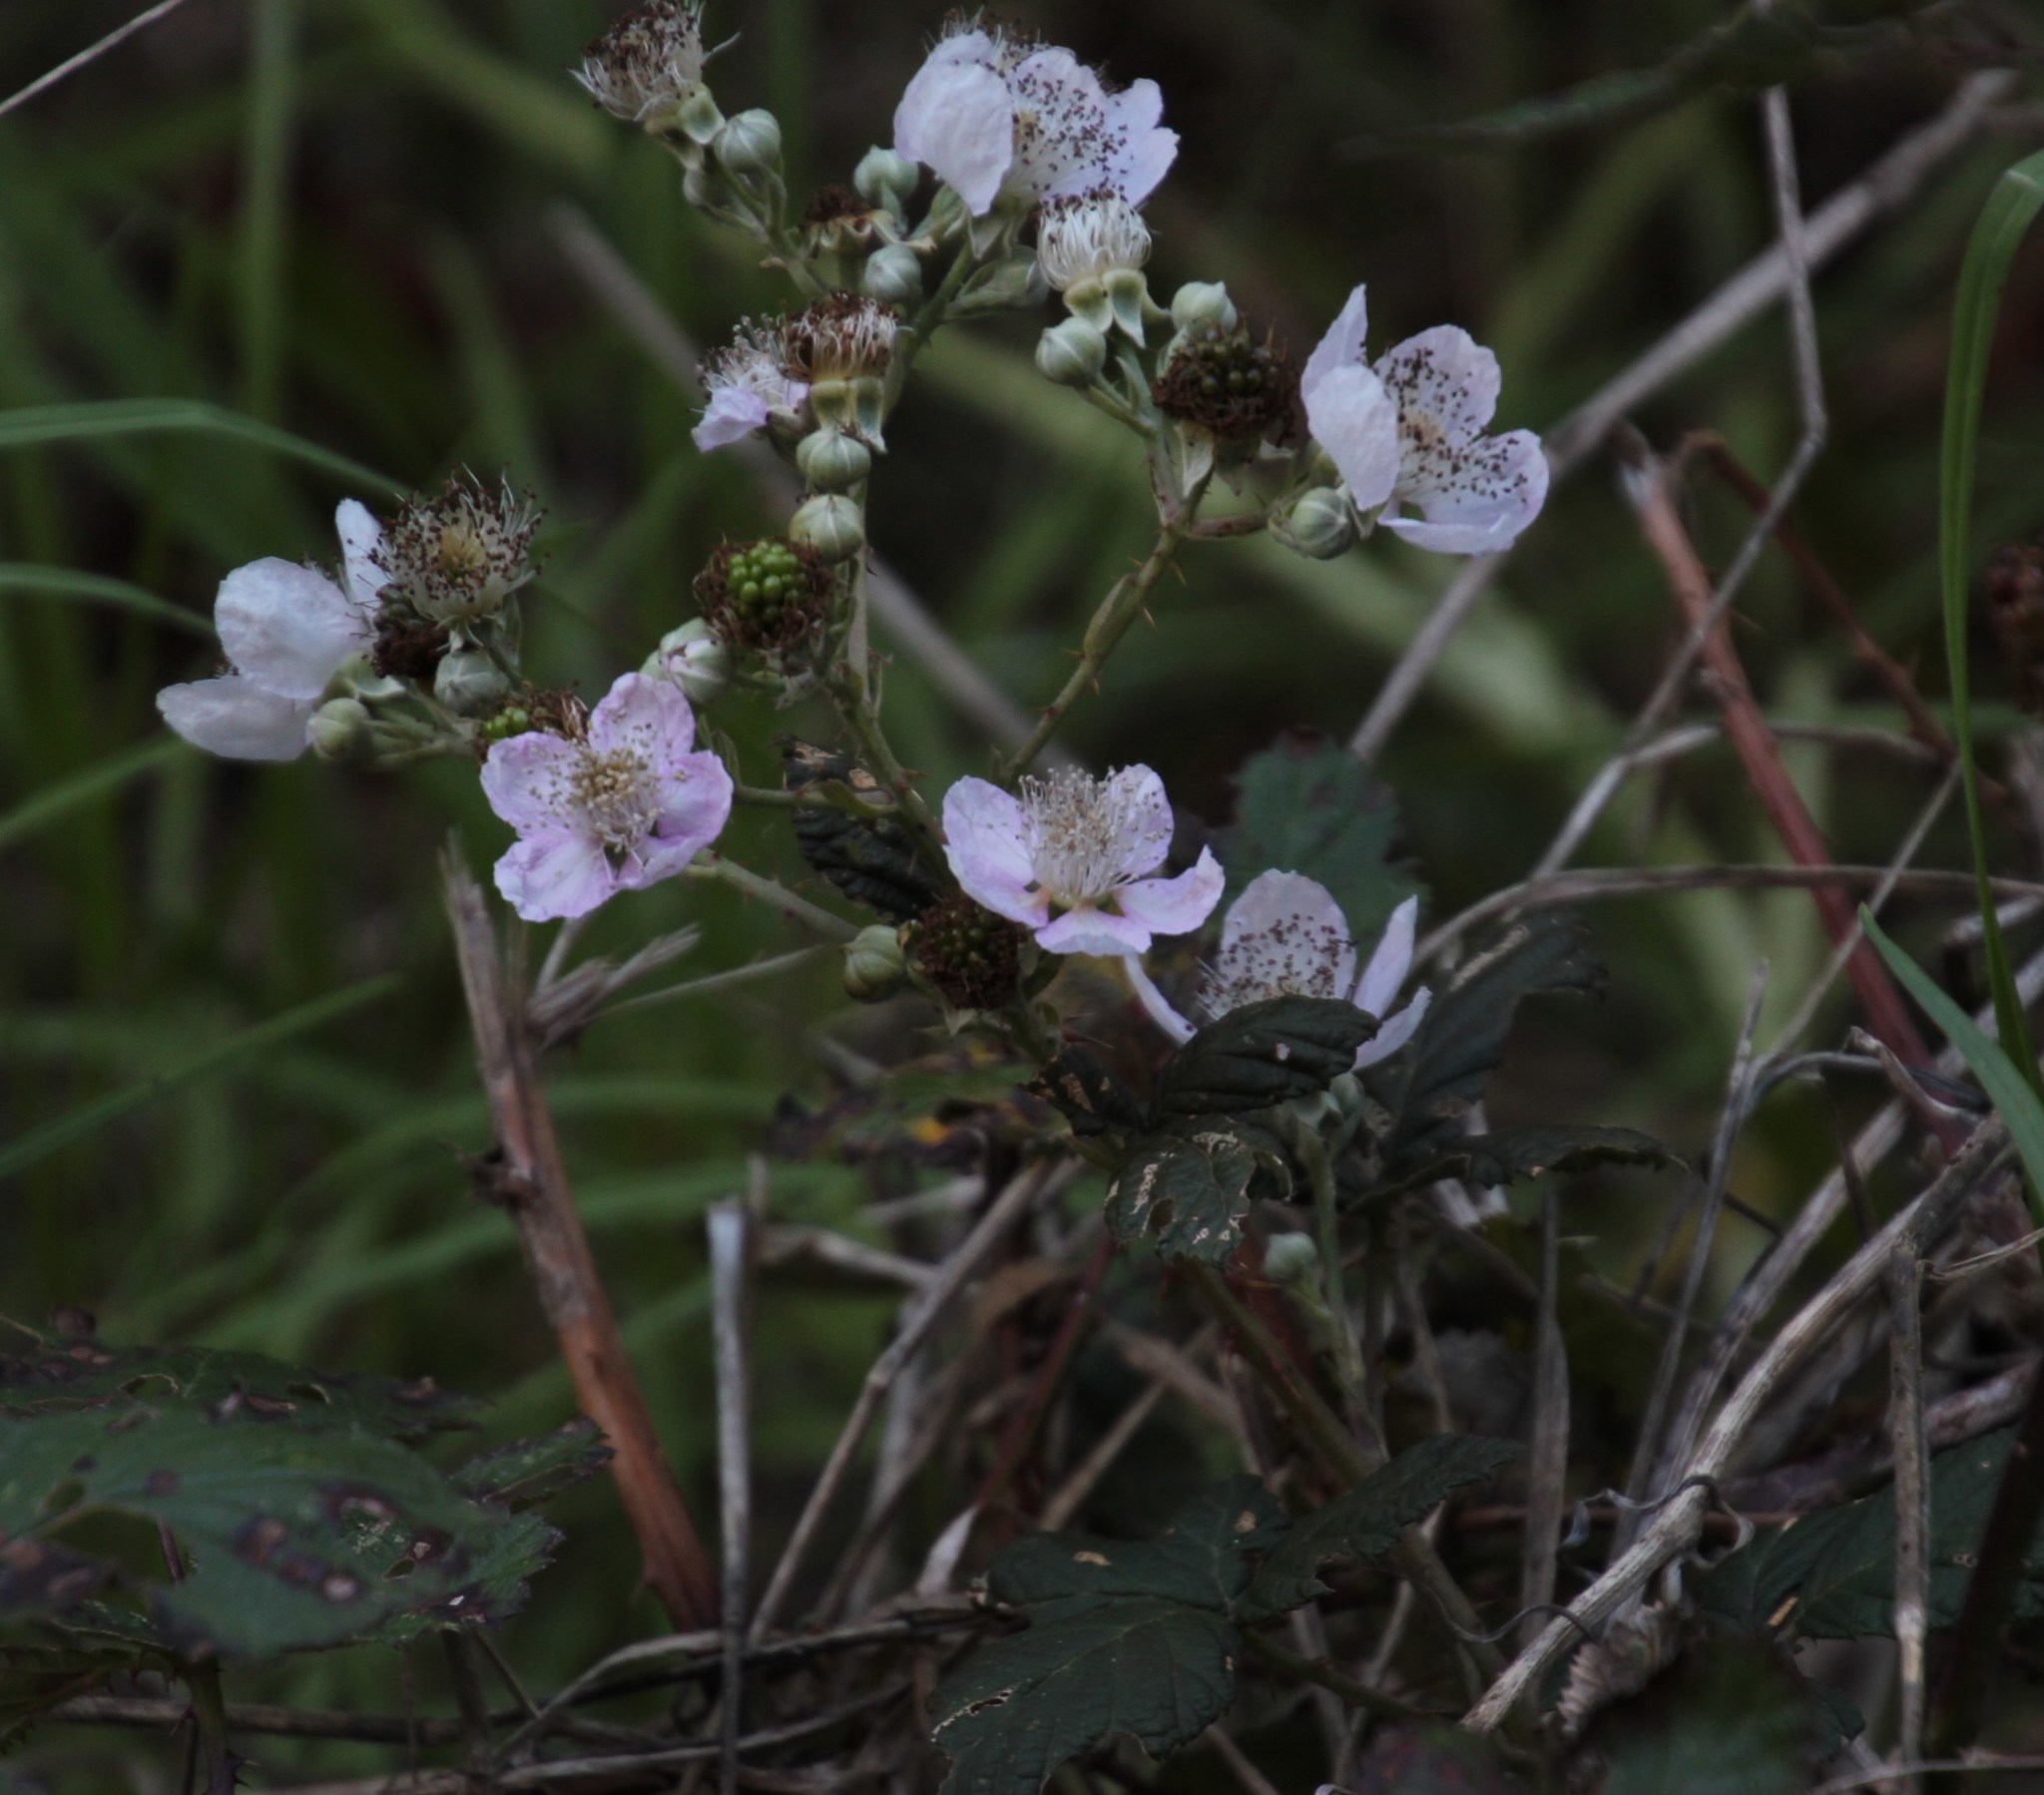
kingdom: Plantae
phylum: Tracheophyta
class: Magnoliopsida
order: Rosales
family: Rosaceae
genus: Rubus
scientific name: Rubus armeniacus
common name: Himalayan blackberry
